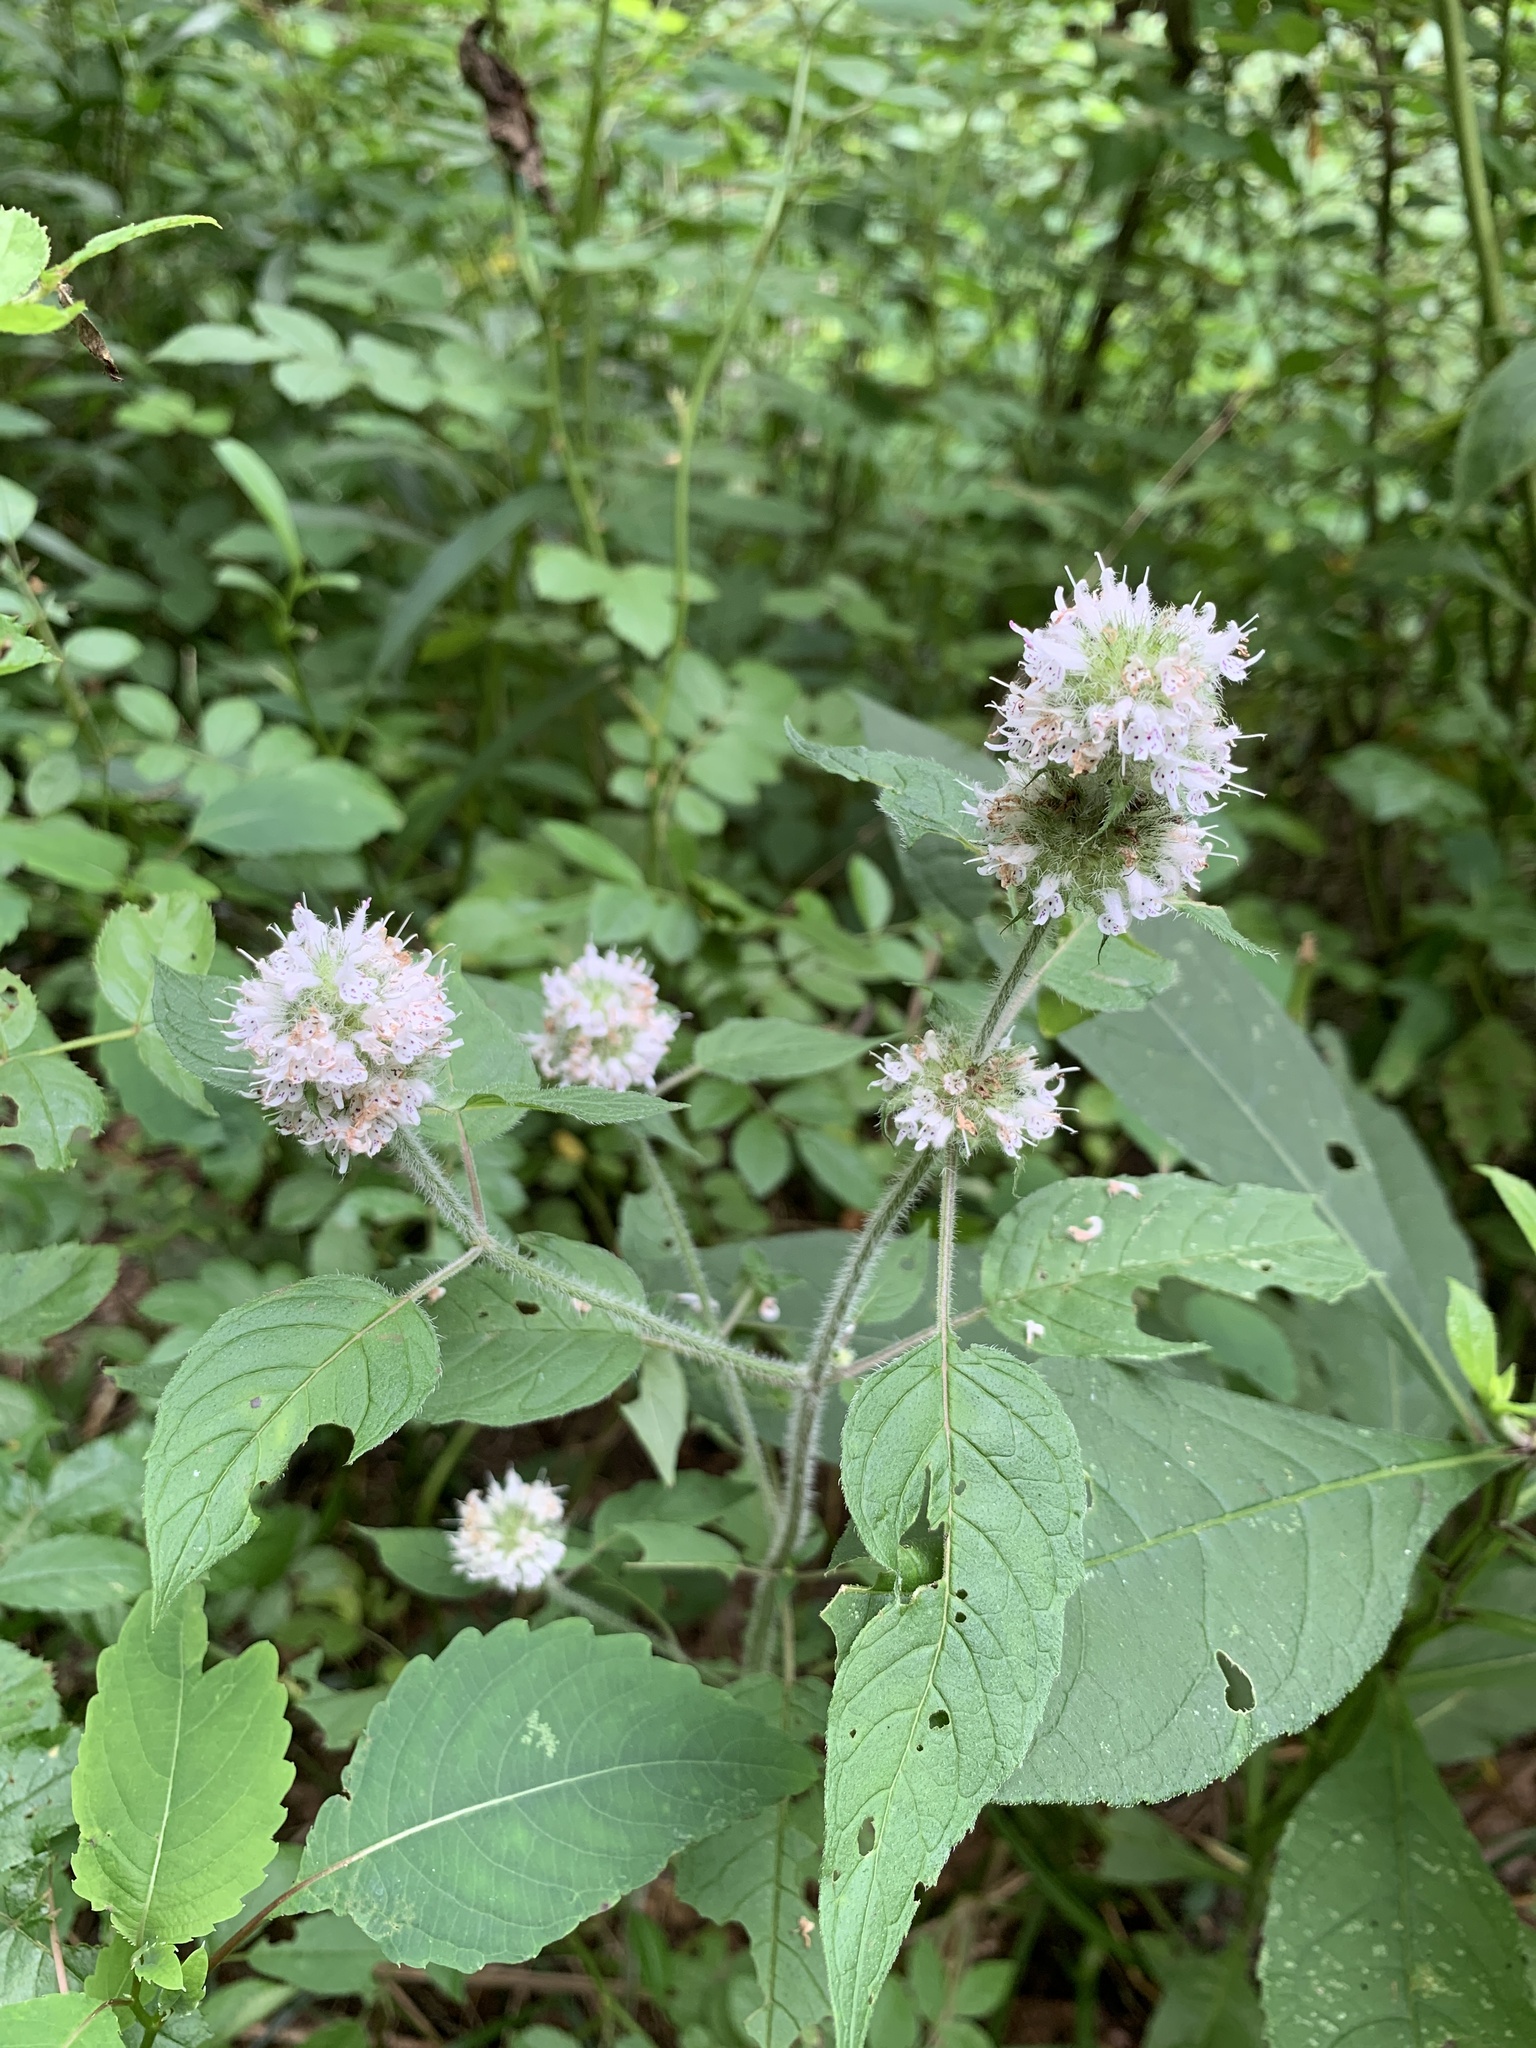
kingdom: Plantae
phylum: Tracheophyta
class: Magnoliopsida
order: Lamiales
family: Lamiaceae
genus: Blephilia
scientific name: Blephilia hirsuta
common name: Hairy blephilia
